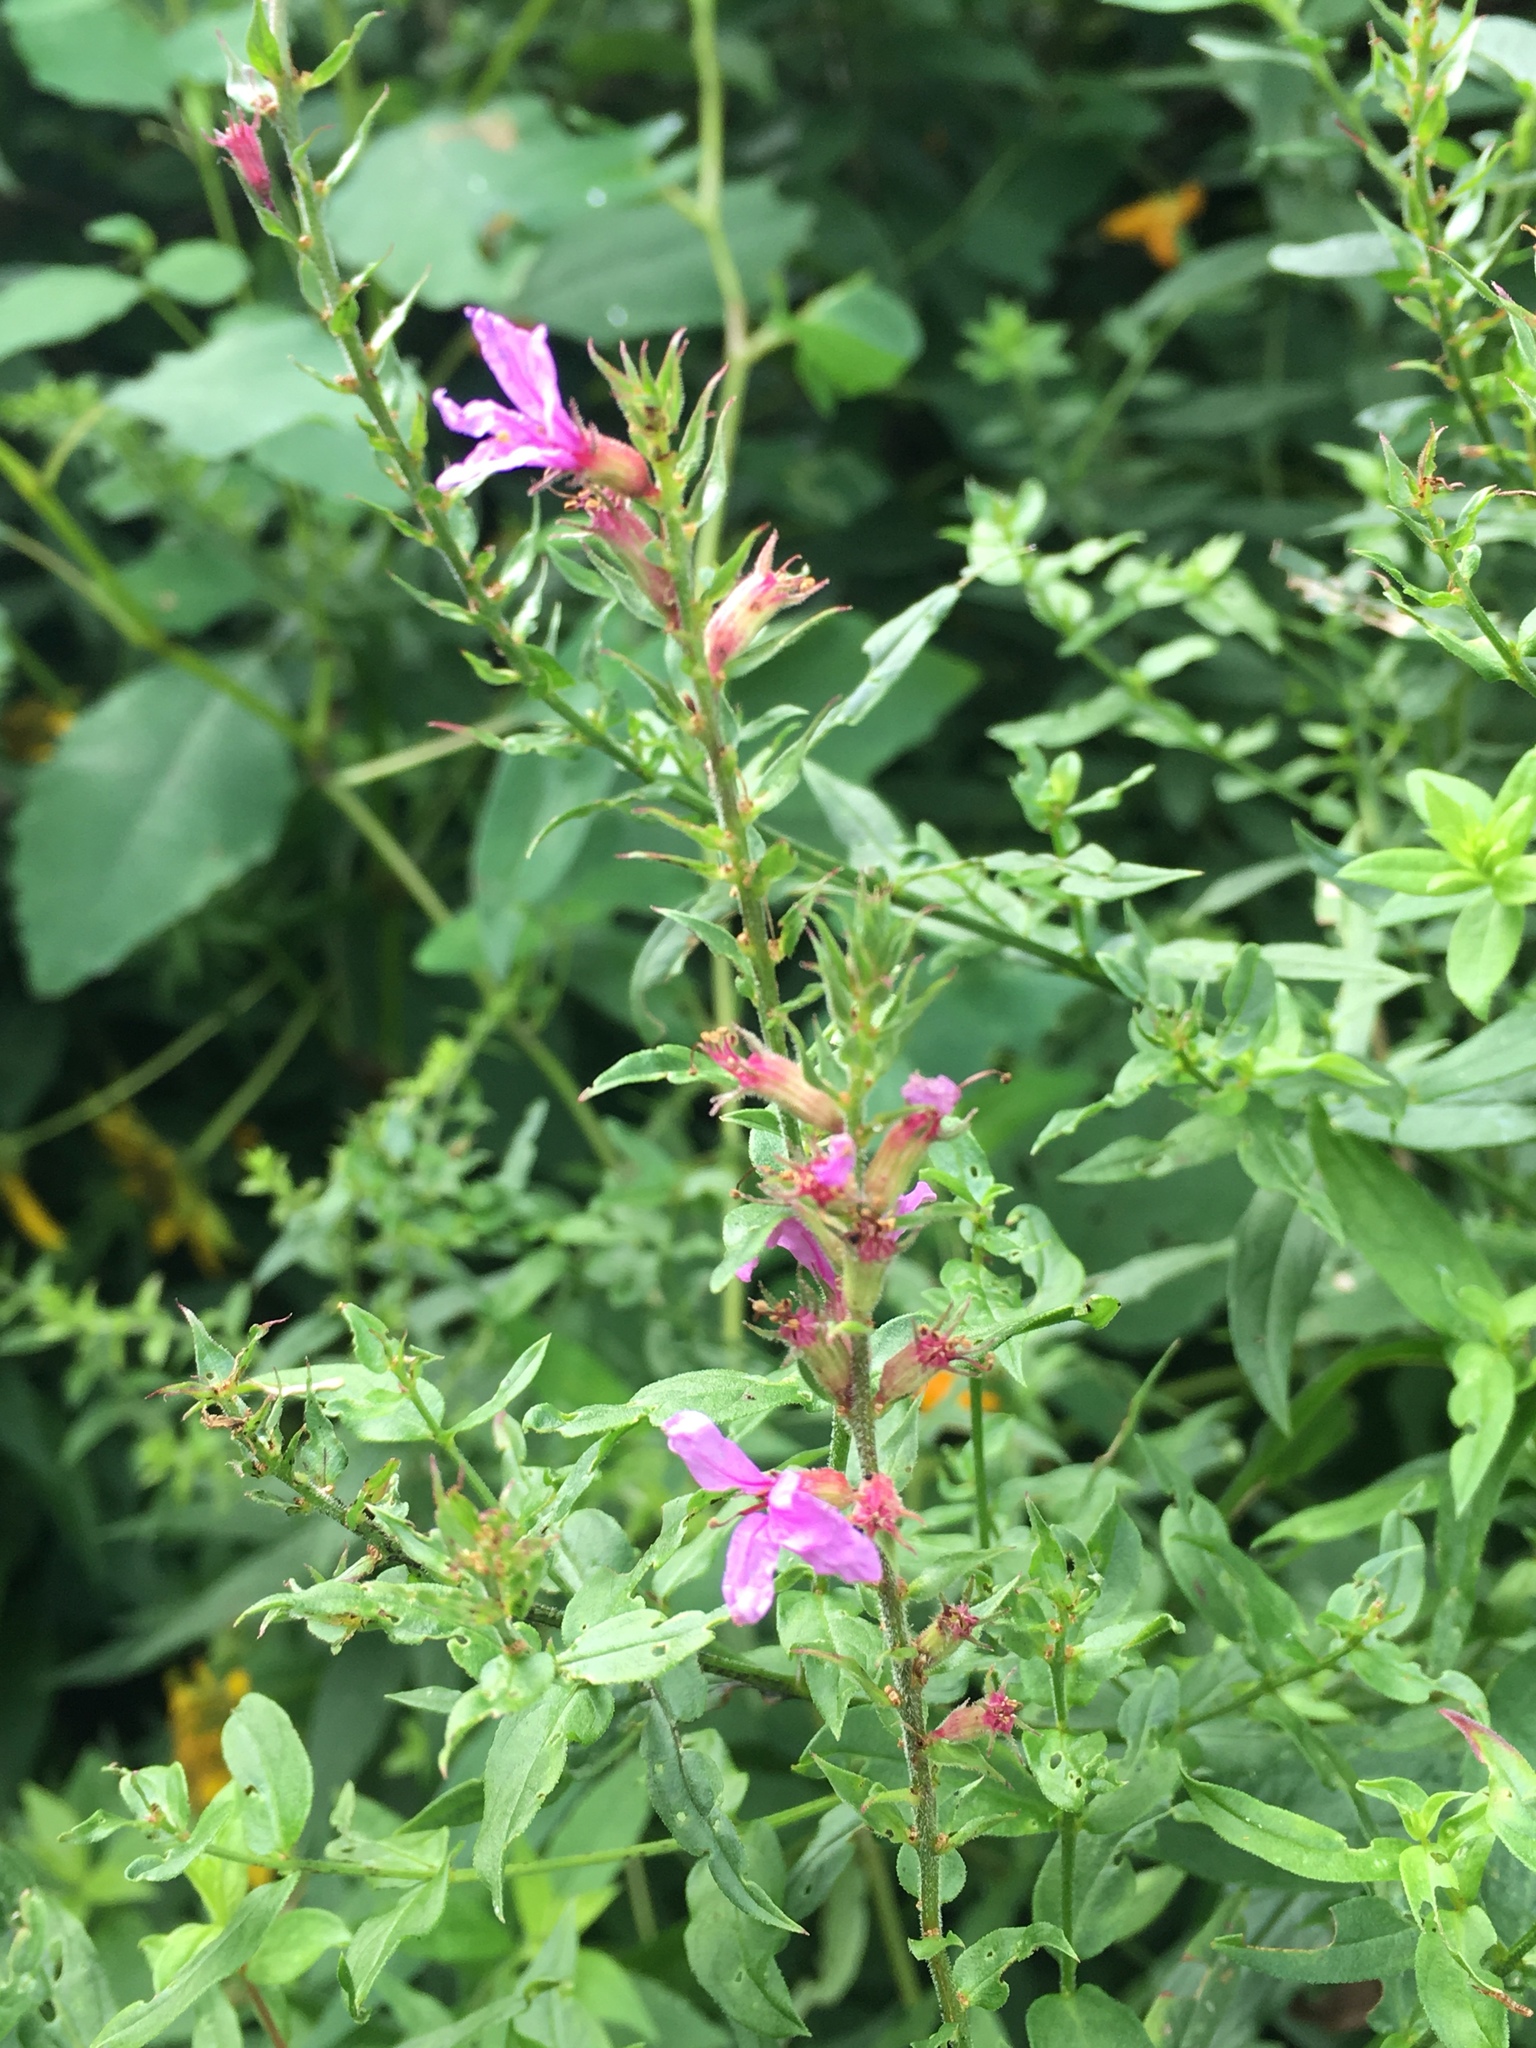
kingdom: Plantae
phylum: Tracheophyta
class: Magnoliopsida
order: Myrtales
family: Lythraceae
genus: Lythrum
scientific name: Lythrum salicaria
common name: Purple loosestrife
